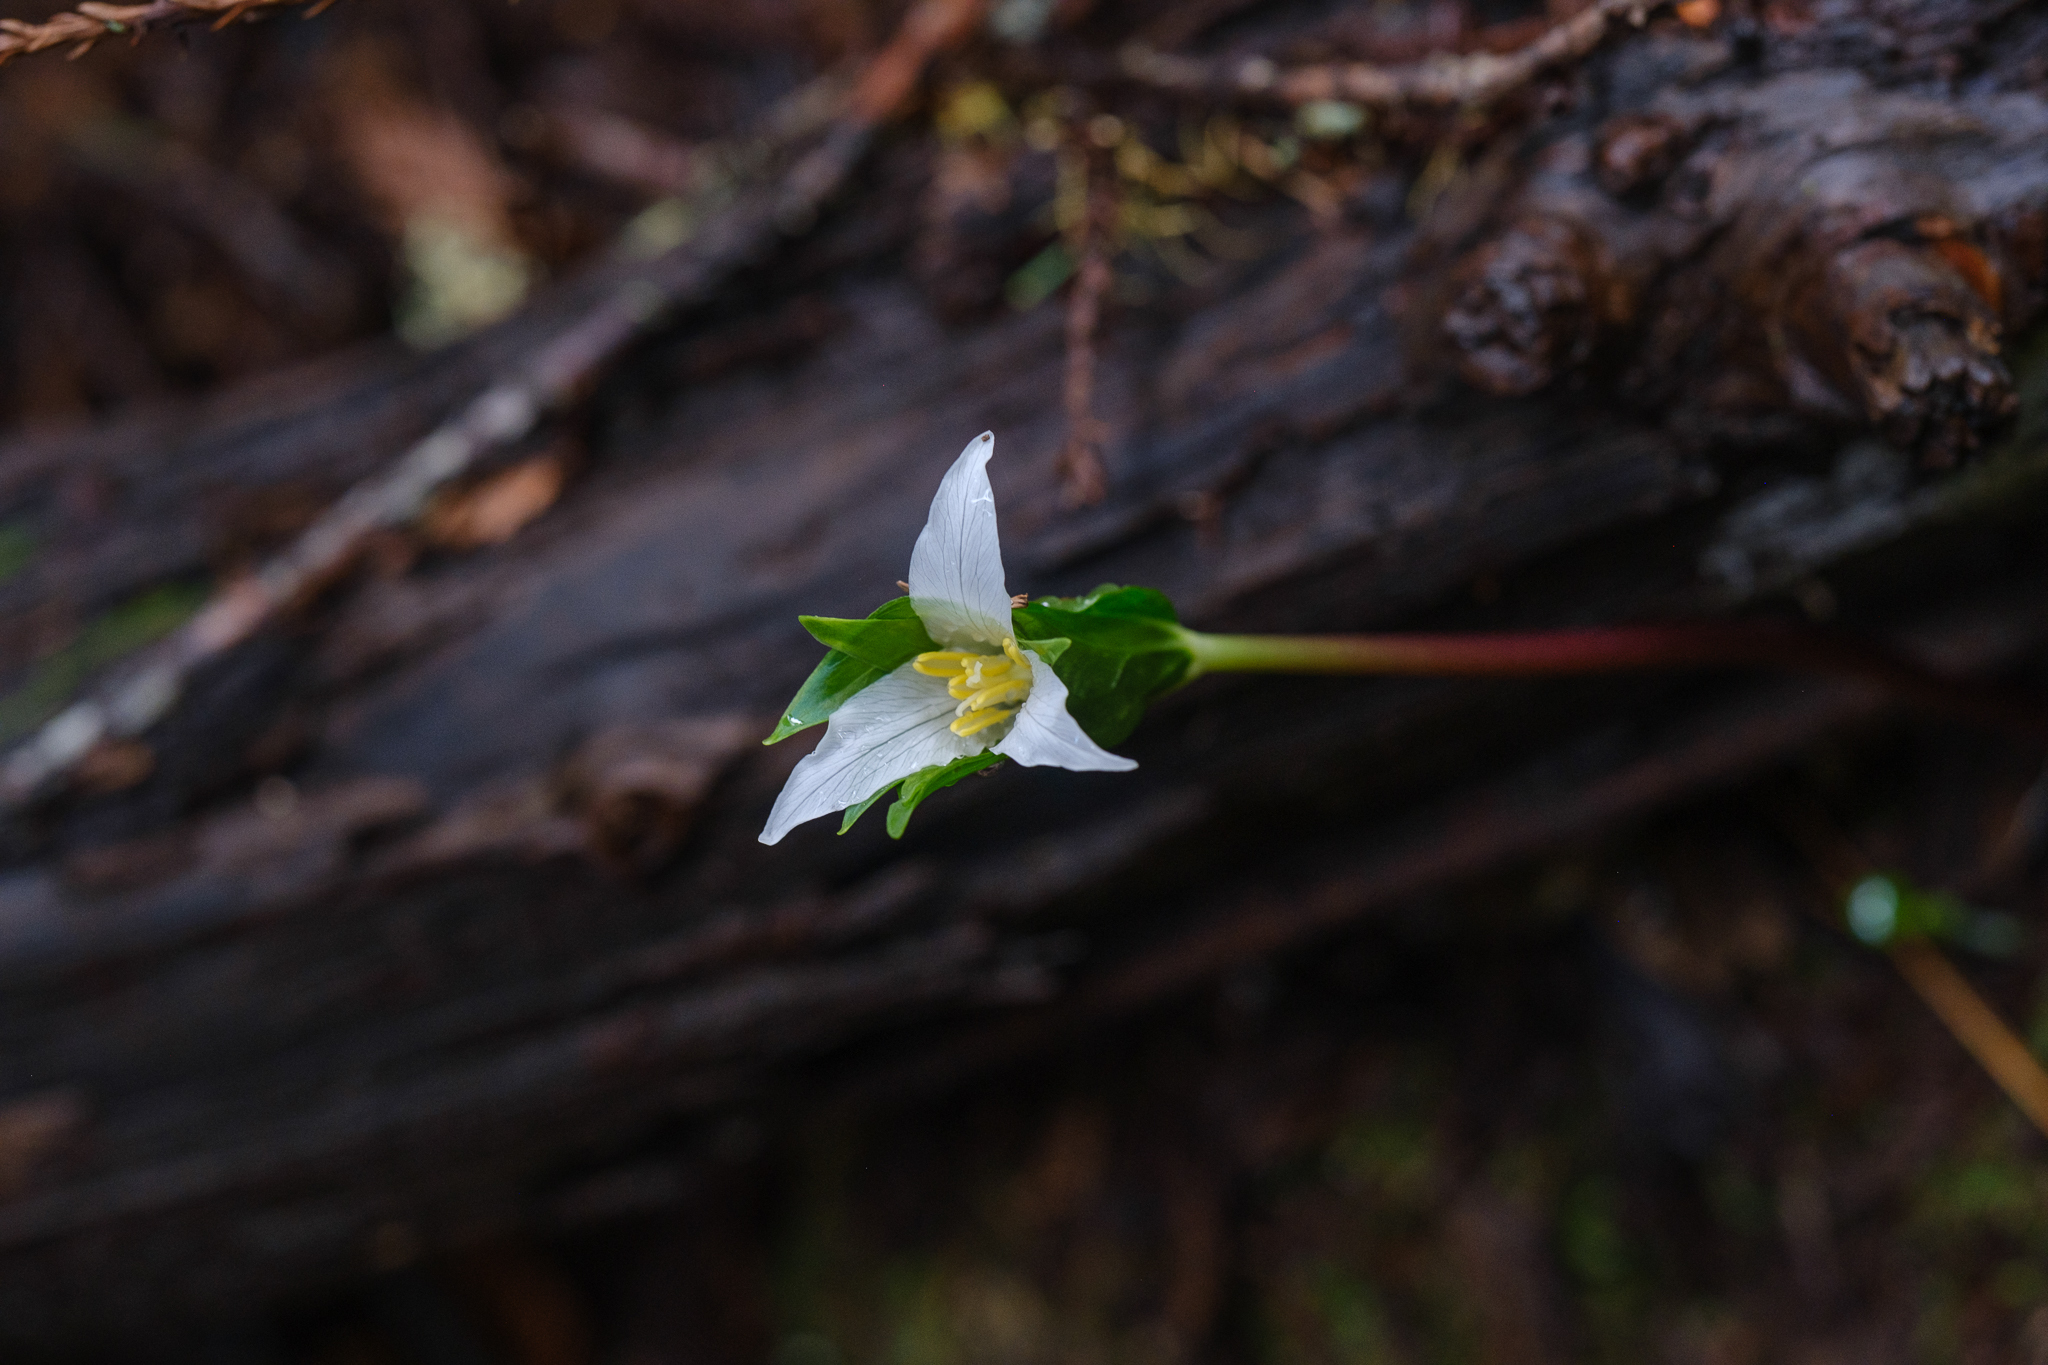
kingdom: Plantae
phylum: Tracheophyta
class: Liliopsida
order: Liliales
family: Melanthiaceae
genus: Trillium
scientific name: Trillium ovatum
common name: Pacific trillium
